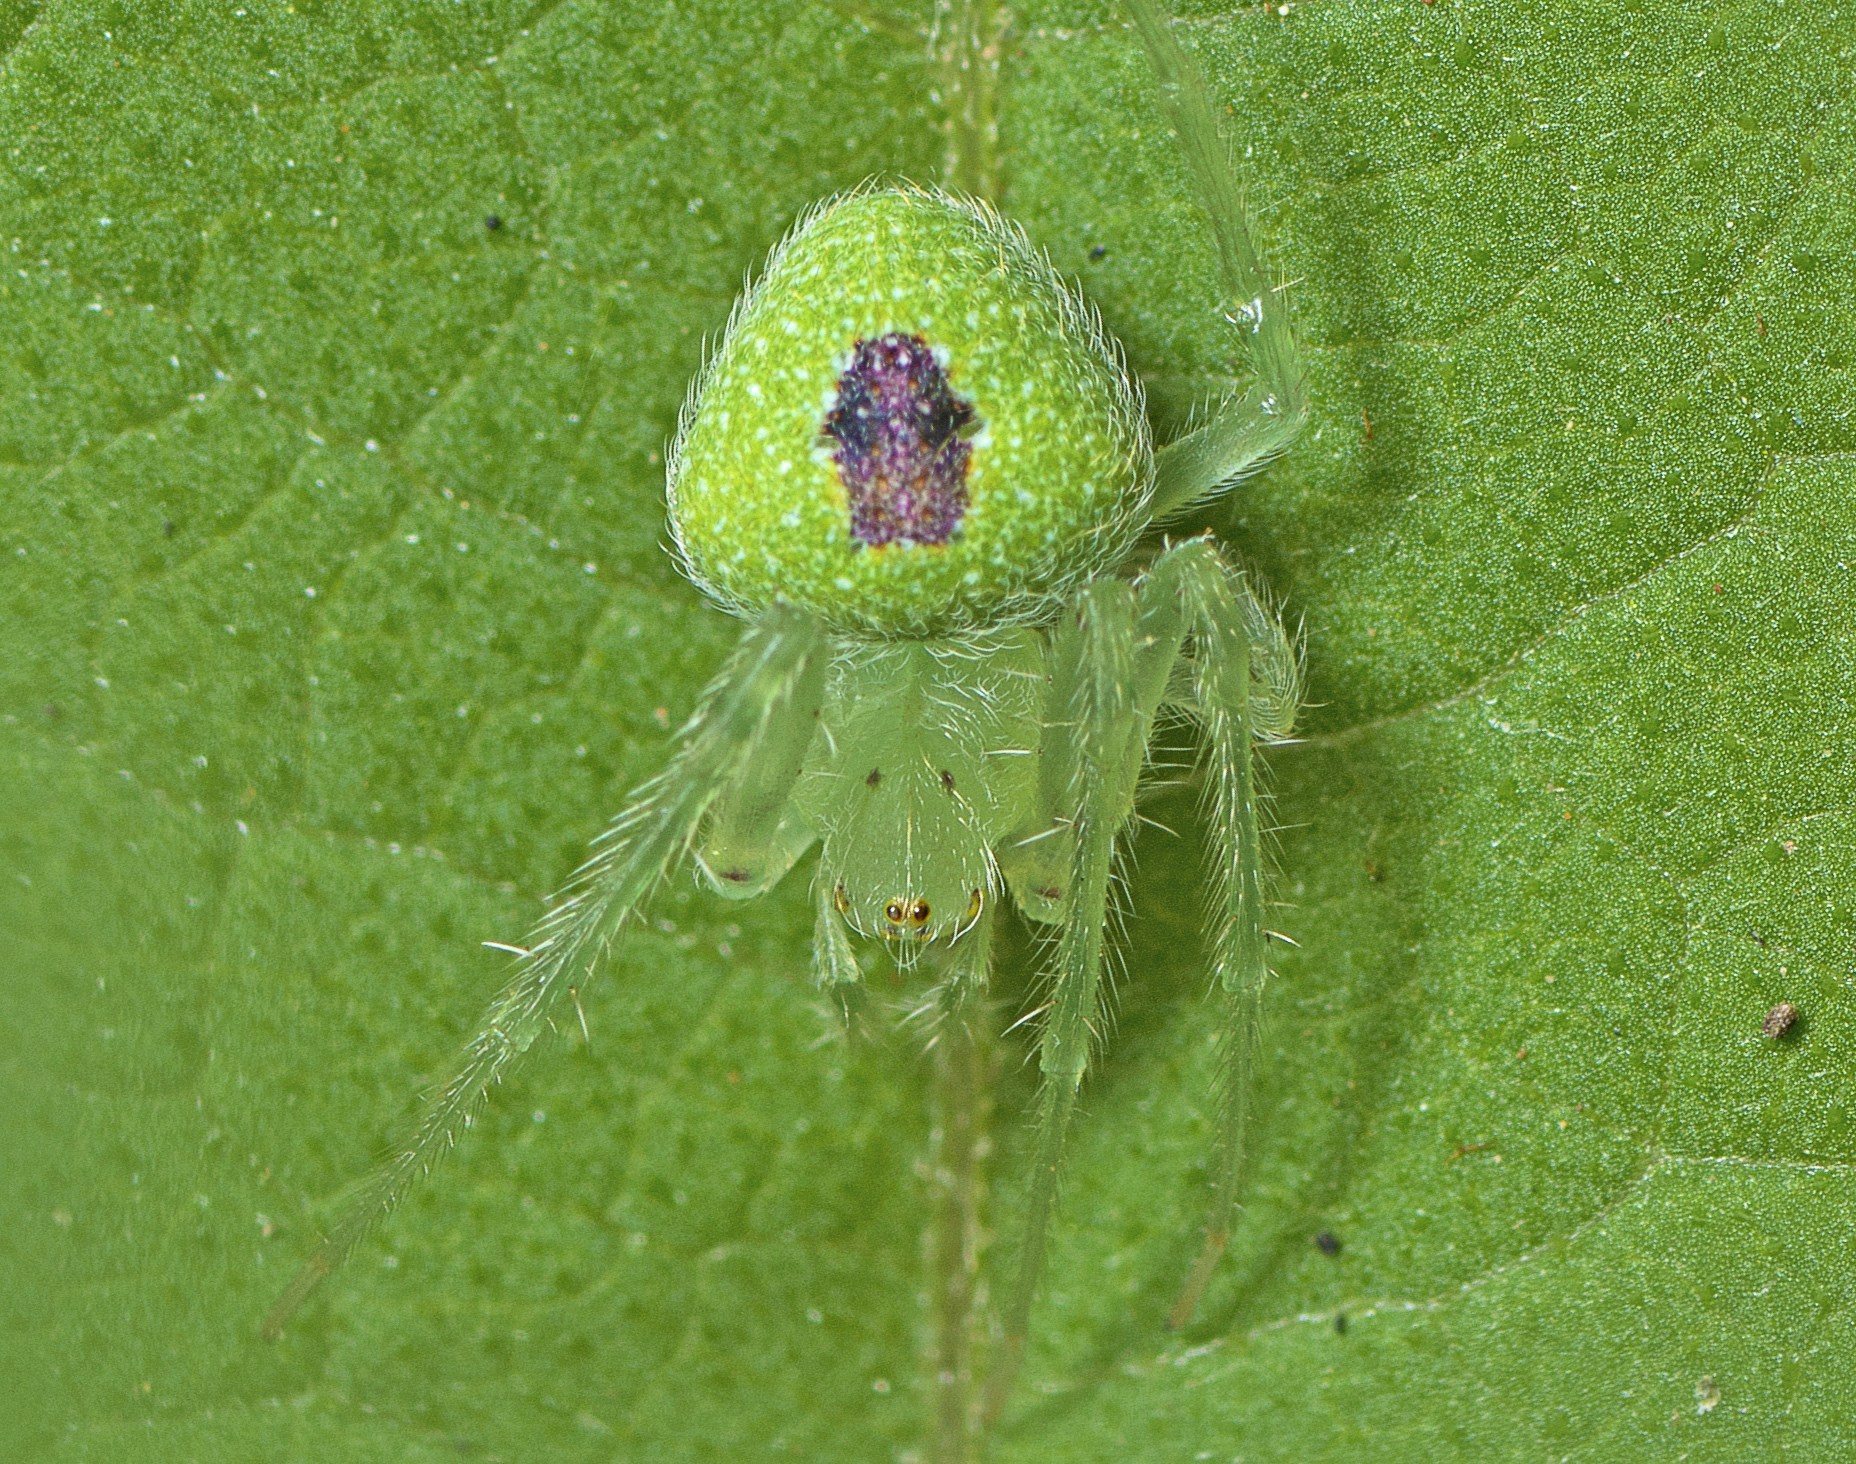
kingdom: Animalia
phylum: Arthropoda
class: Arachnida
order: Araneae
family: Araneidae
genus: Araneus
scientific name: Araneus circulissparsus
